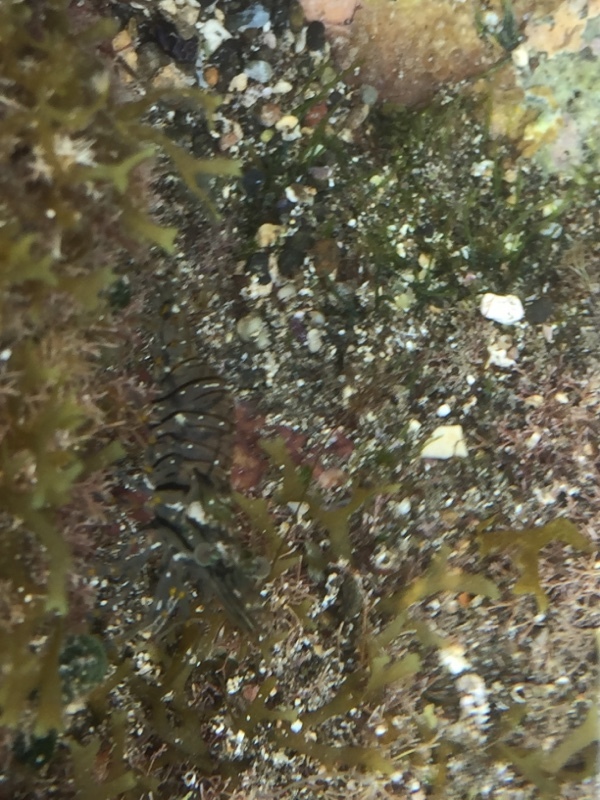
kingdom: Animalia
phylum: Arthropoda
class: Malacostraca
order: Decapoda
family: Palaemonidae
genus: Palaemon
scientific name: Palaemon elegans
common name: Grass prawm
